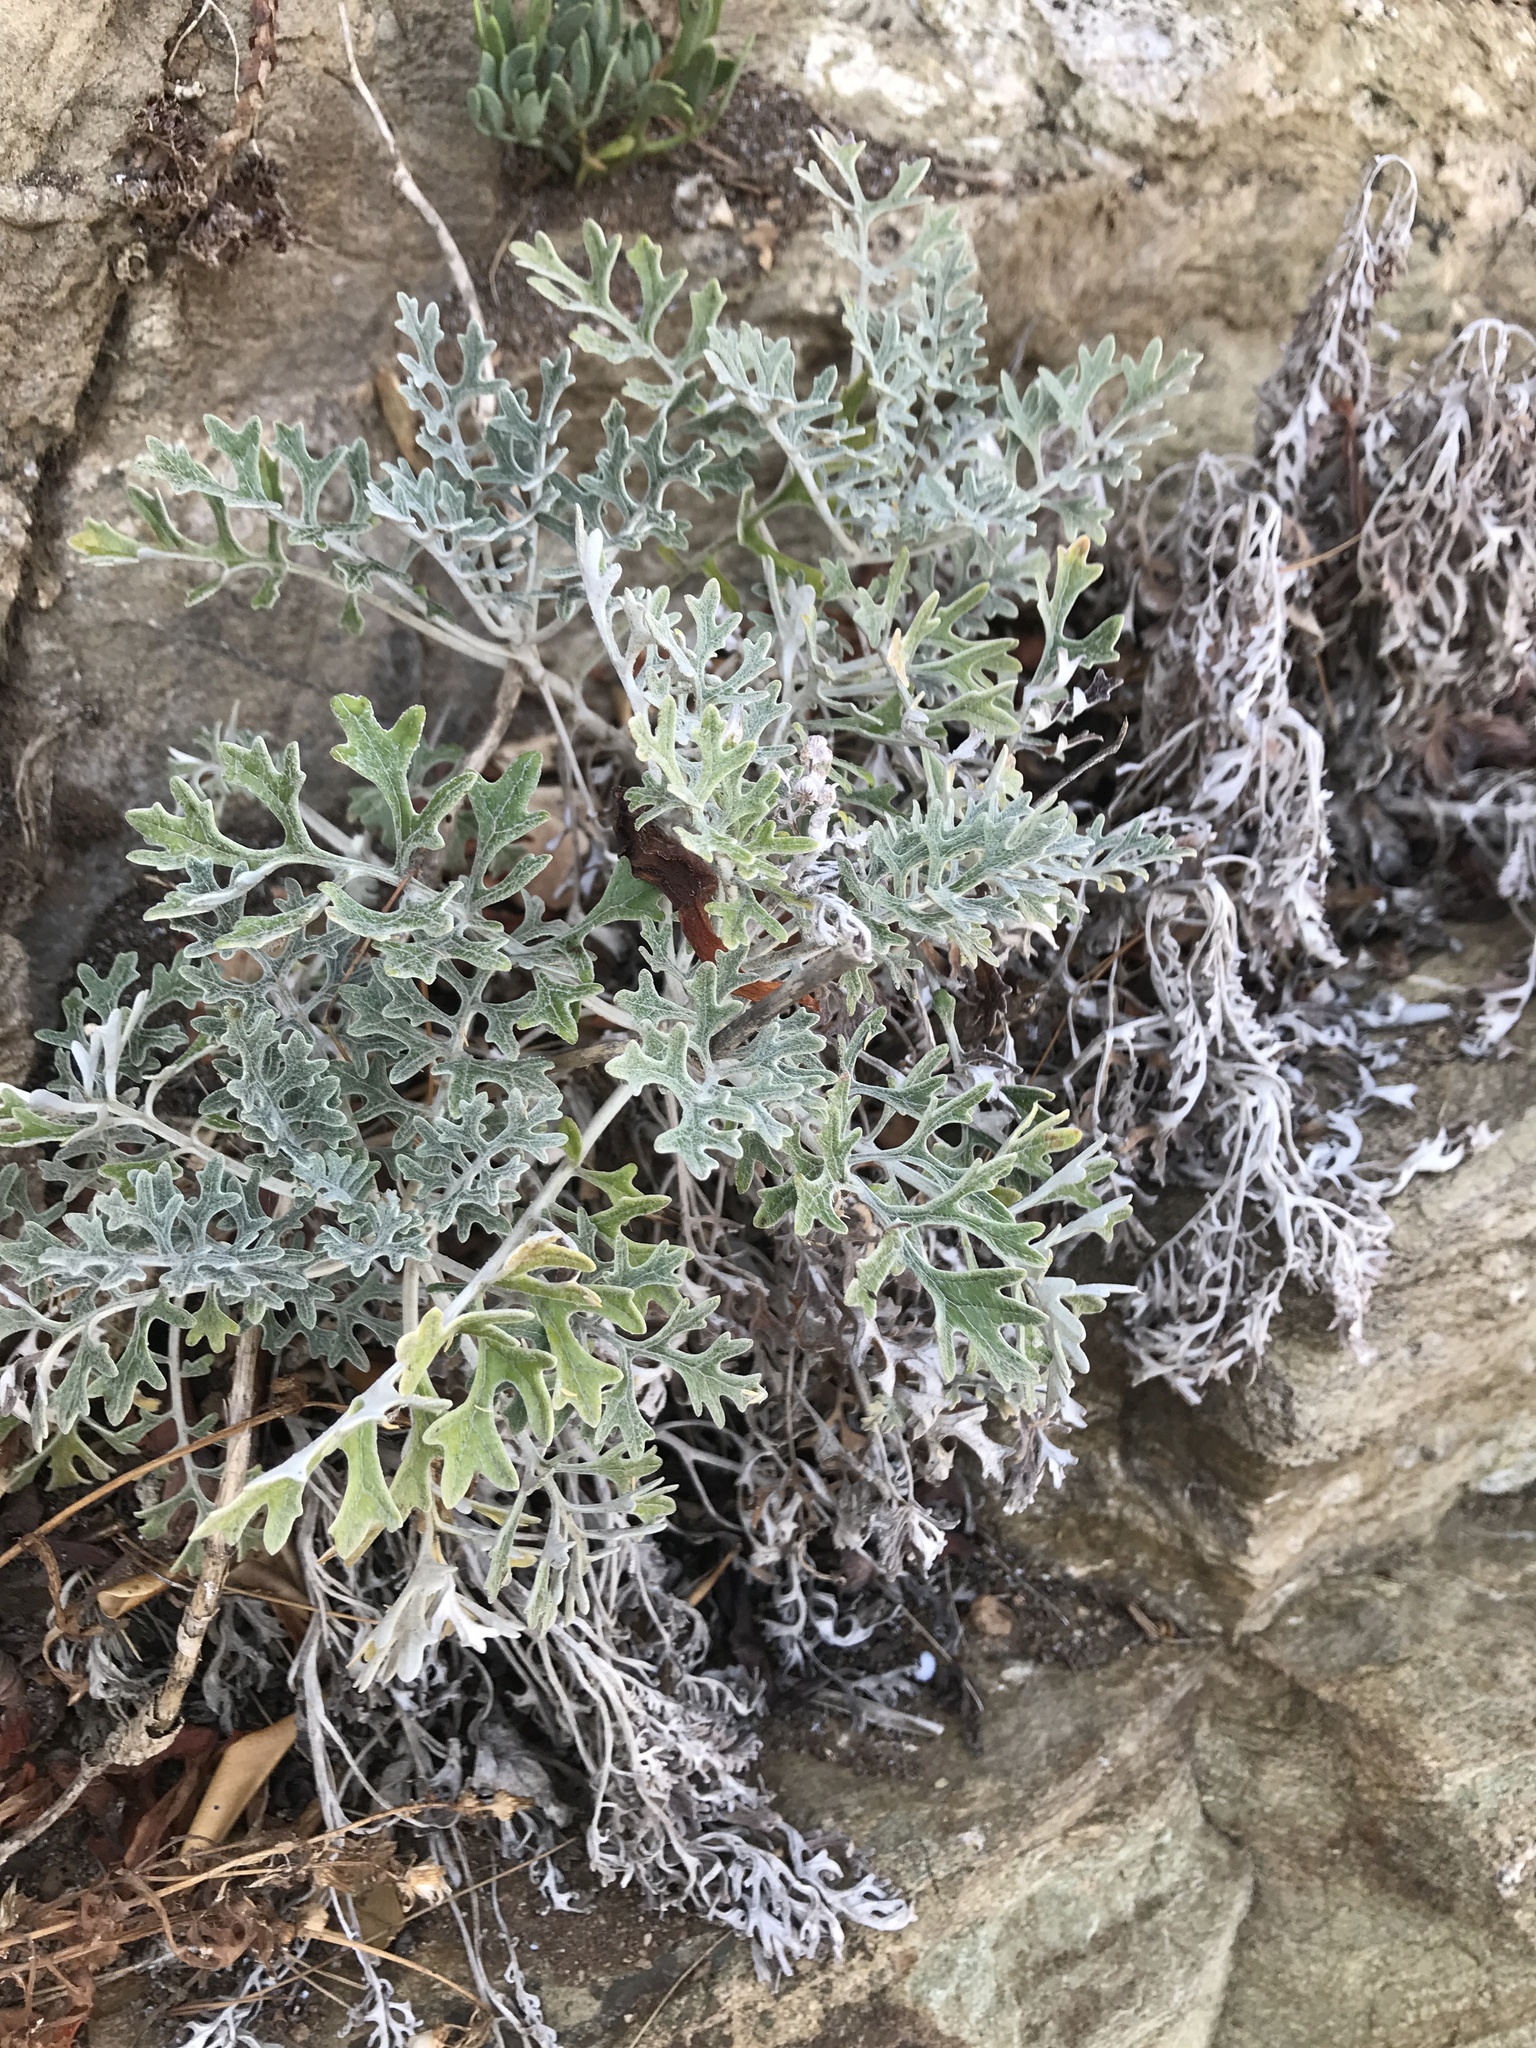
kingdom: Plantae
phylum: Tracheophyta
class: Magnoliopsida
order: Asterales
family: Asteraceae
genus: Jacobaea
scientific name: Jacobaea maritima
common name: Silver ragwort
